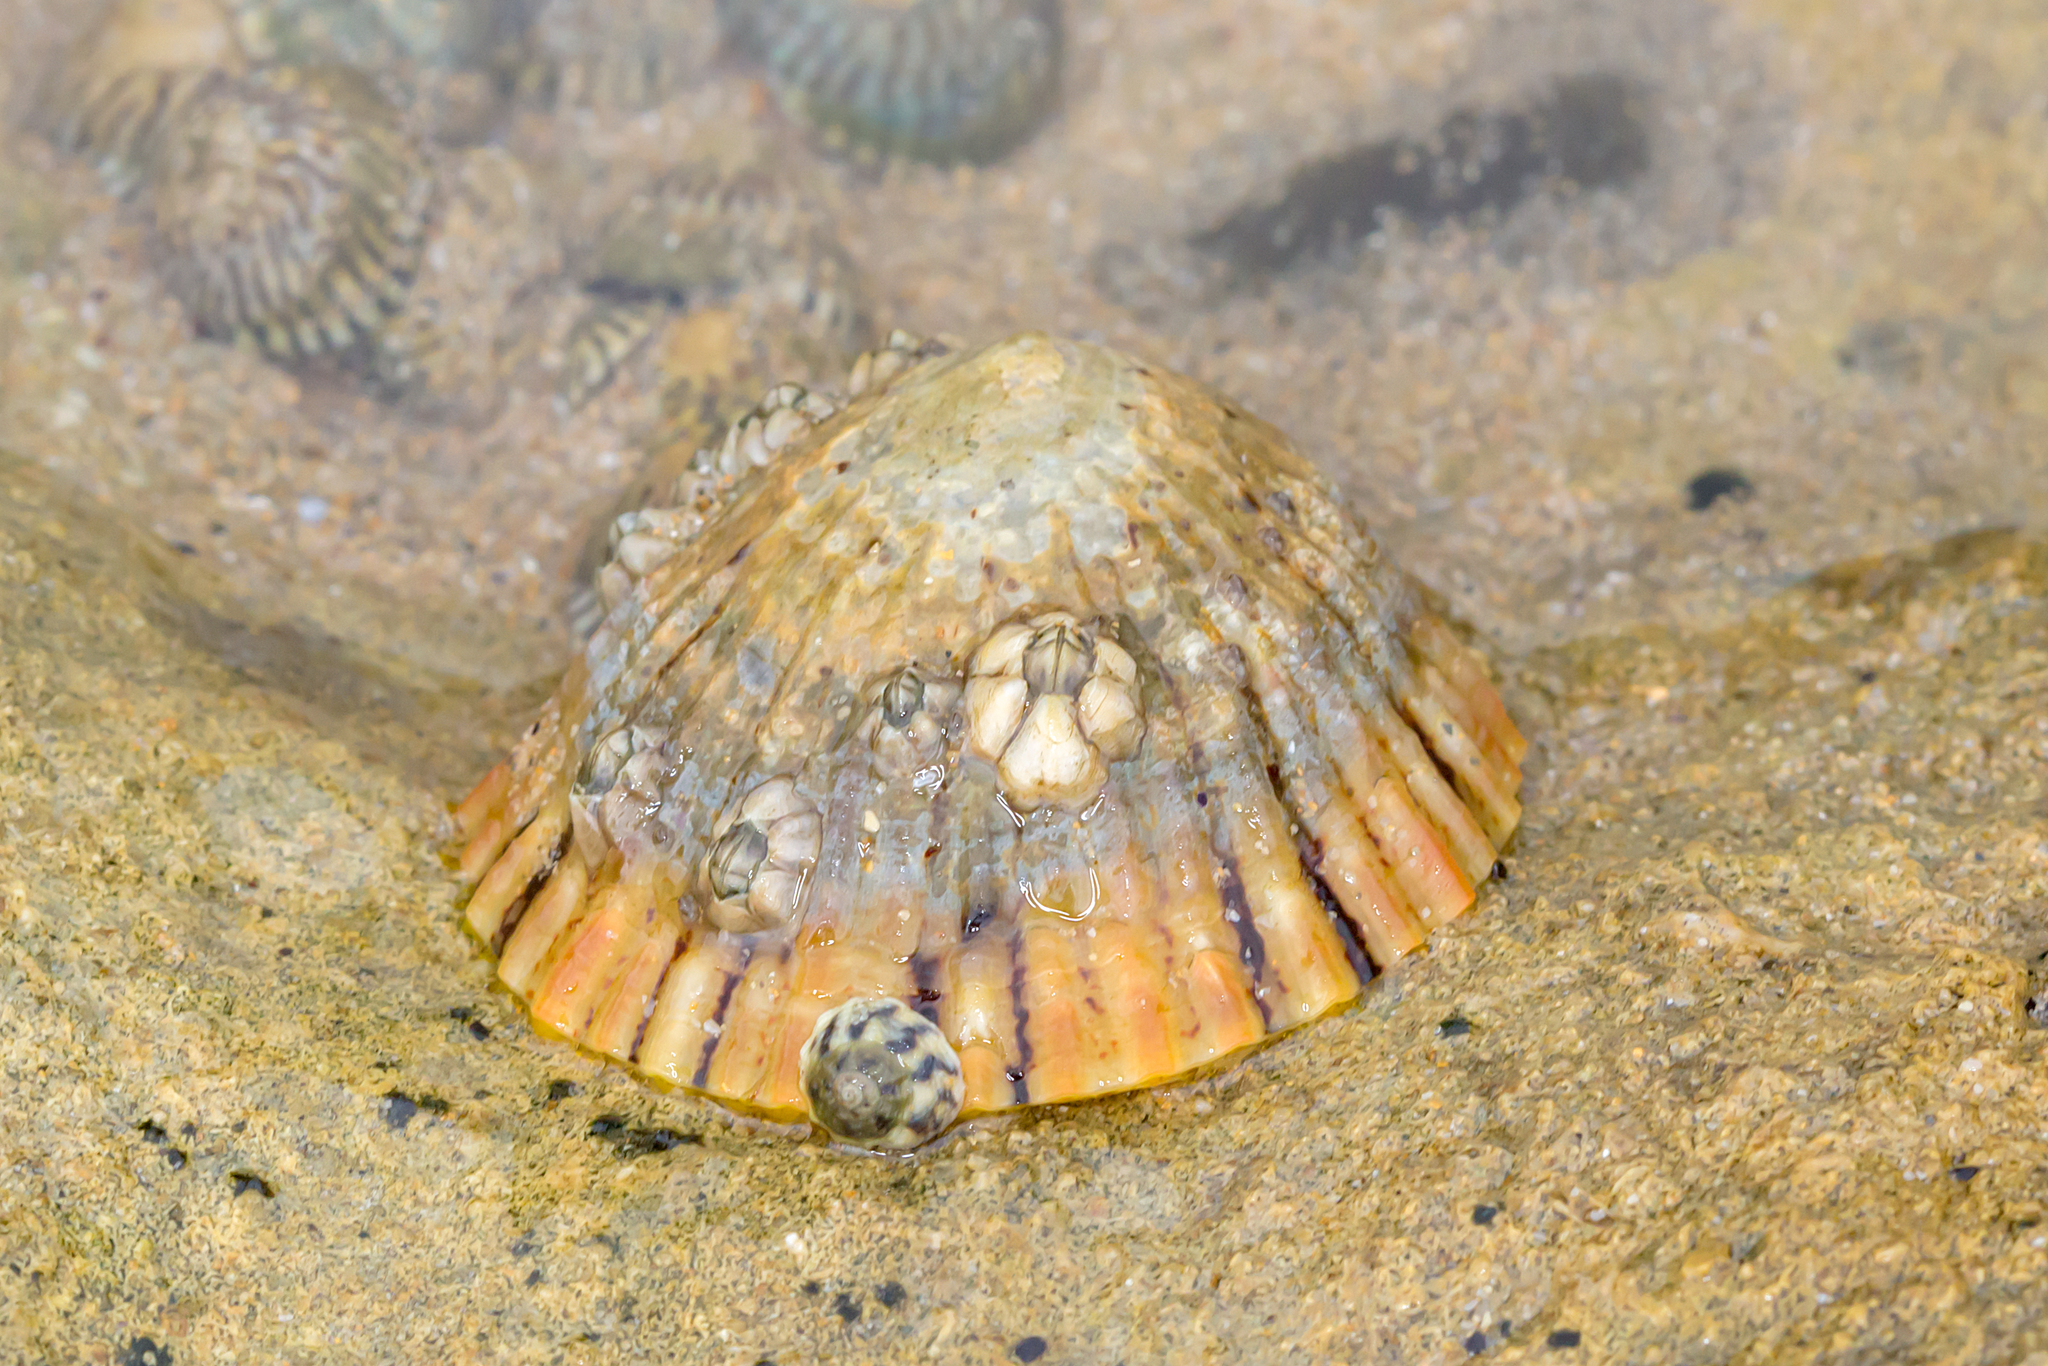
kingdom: Animalia
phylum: Mollusca
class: Gastropoda
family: Nacellidae
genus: Cellana
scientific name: Cellana tramoserica
